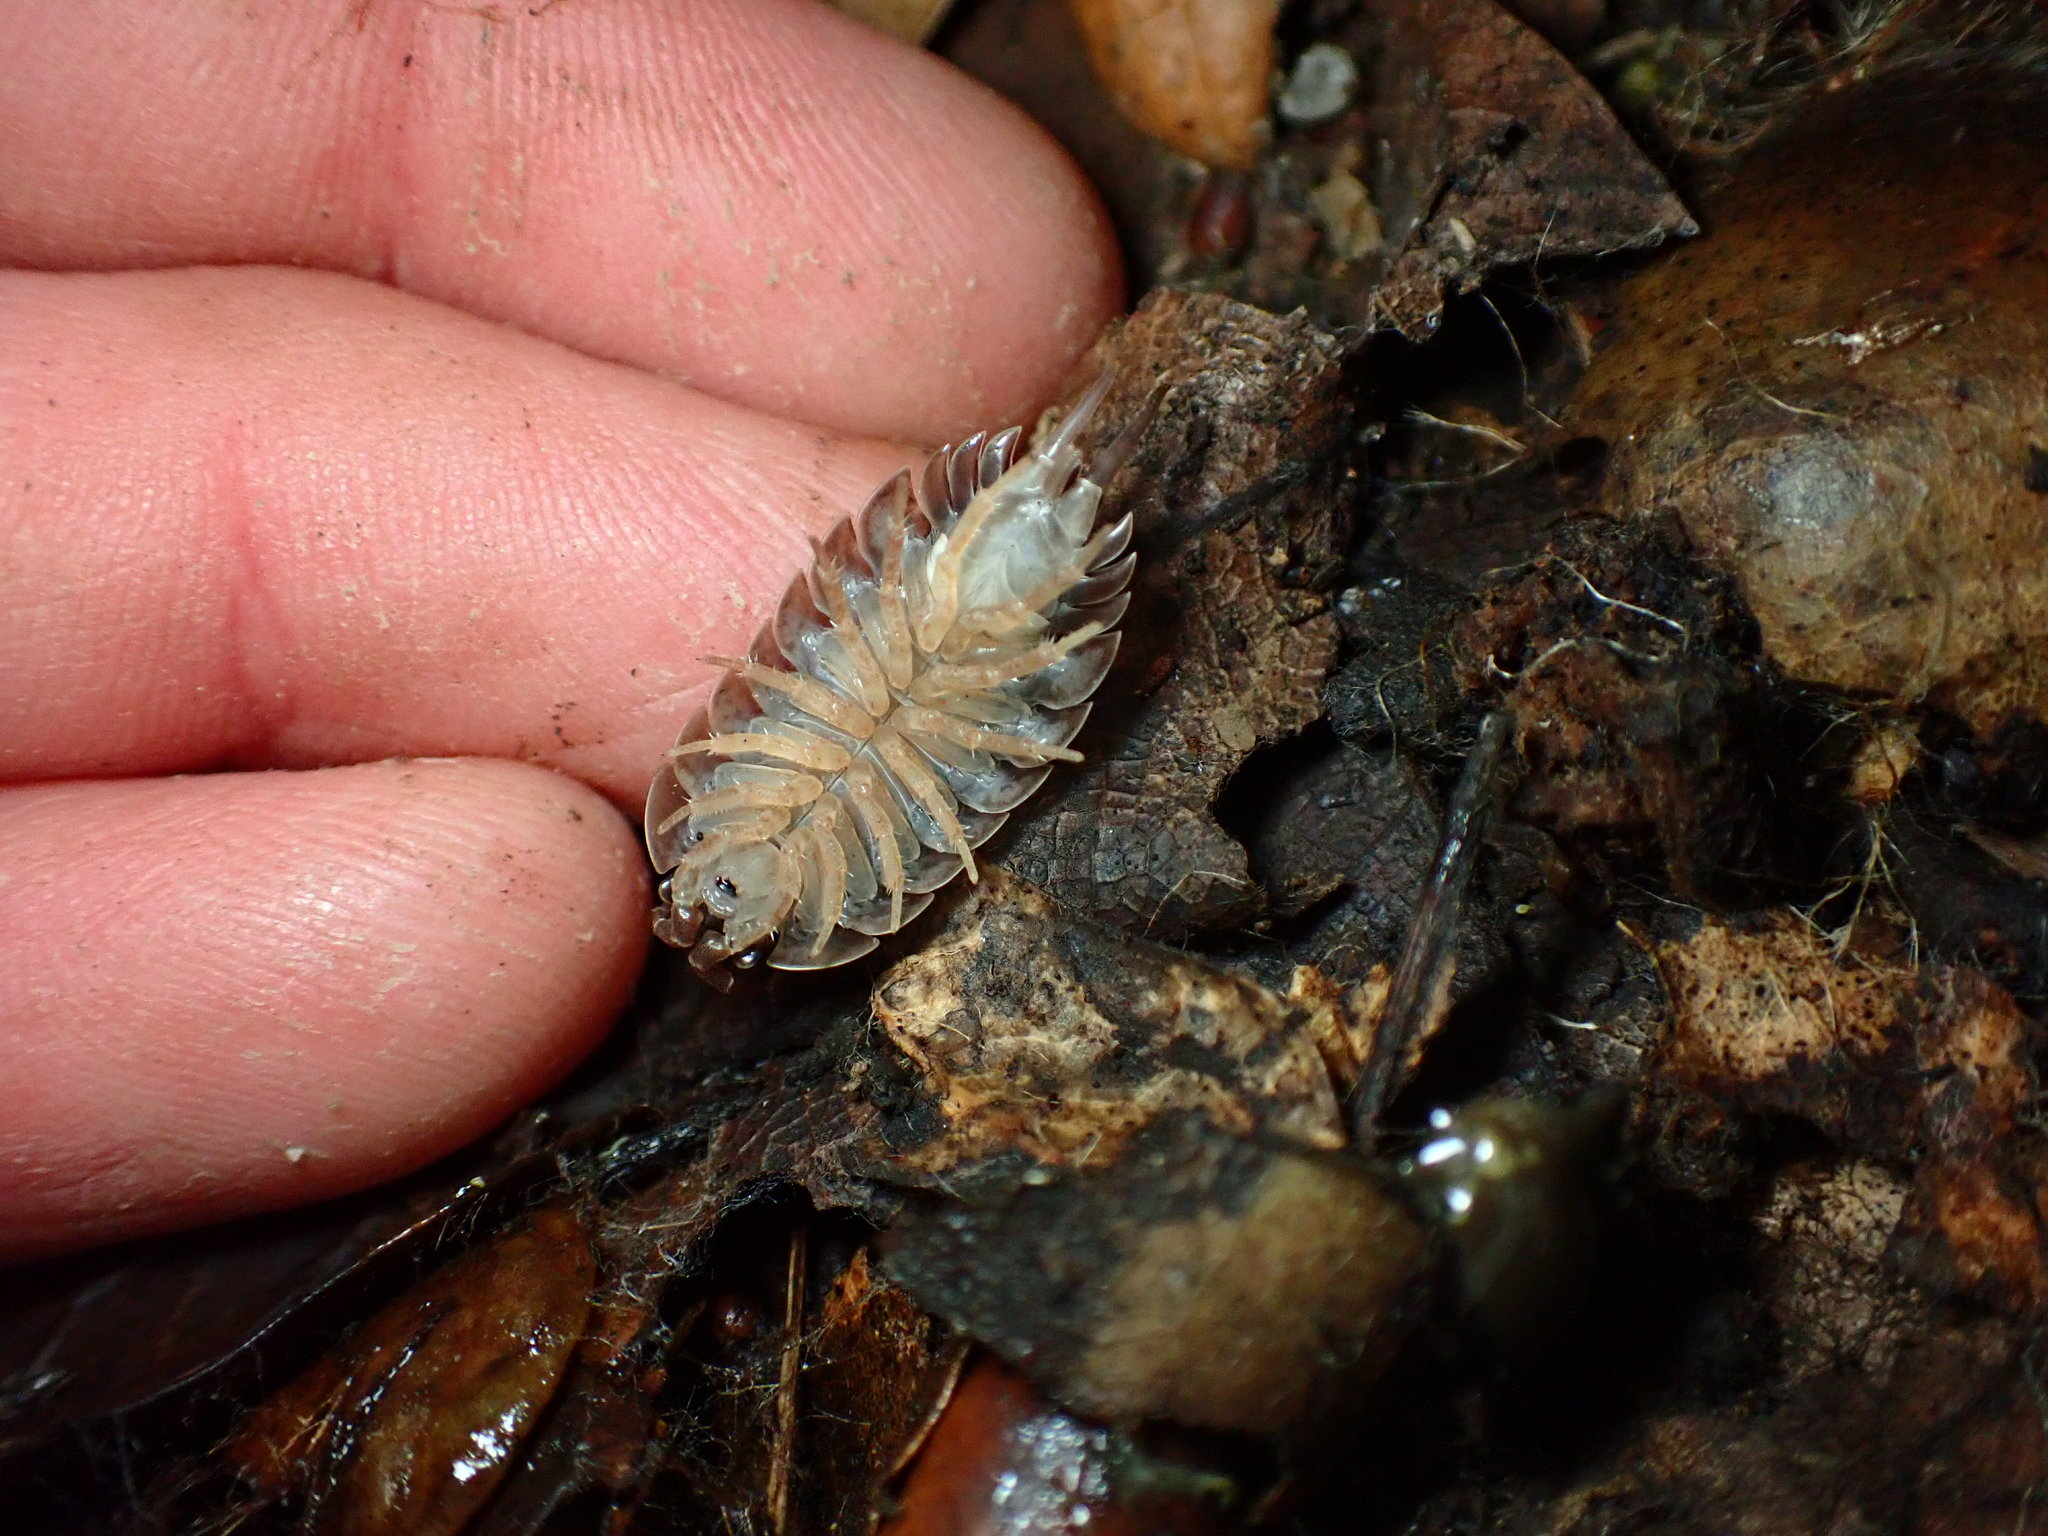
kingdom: Animalia
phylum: Arthropoda
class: Malacostraca
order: Isopoda
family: Porcellionidae
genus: Porcellio
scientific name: Porcellio laevis
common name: Swift woodlouse
